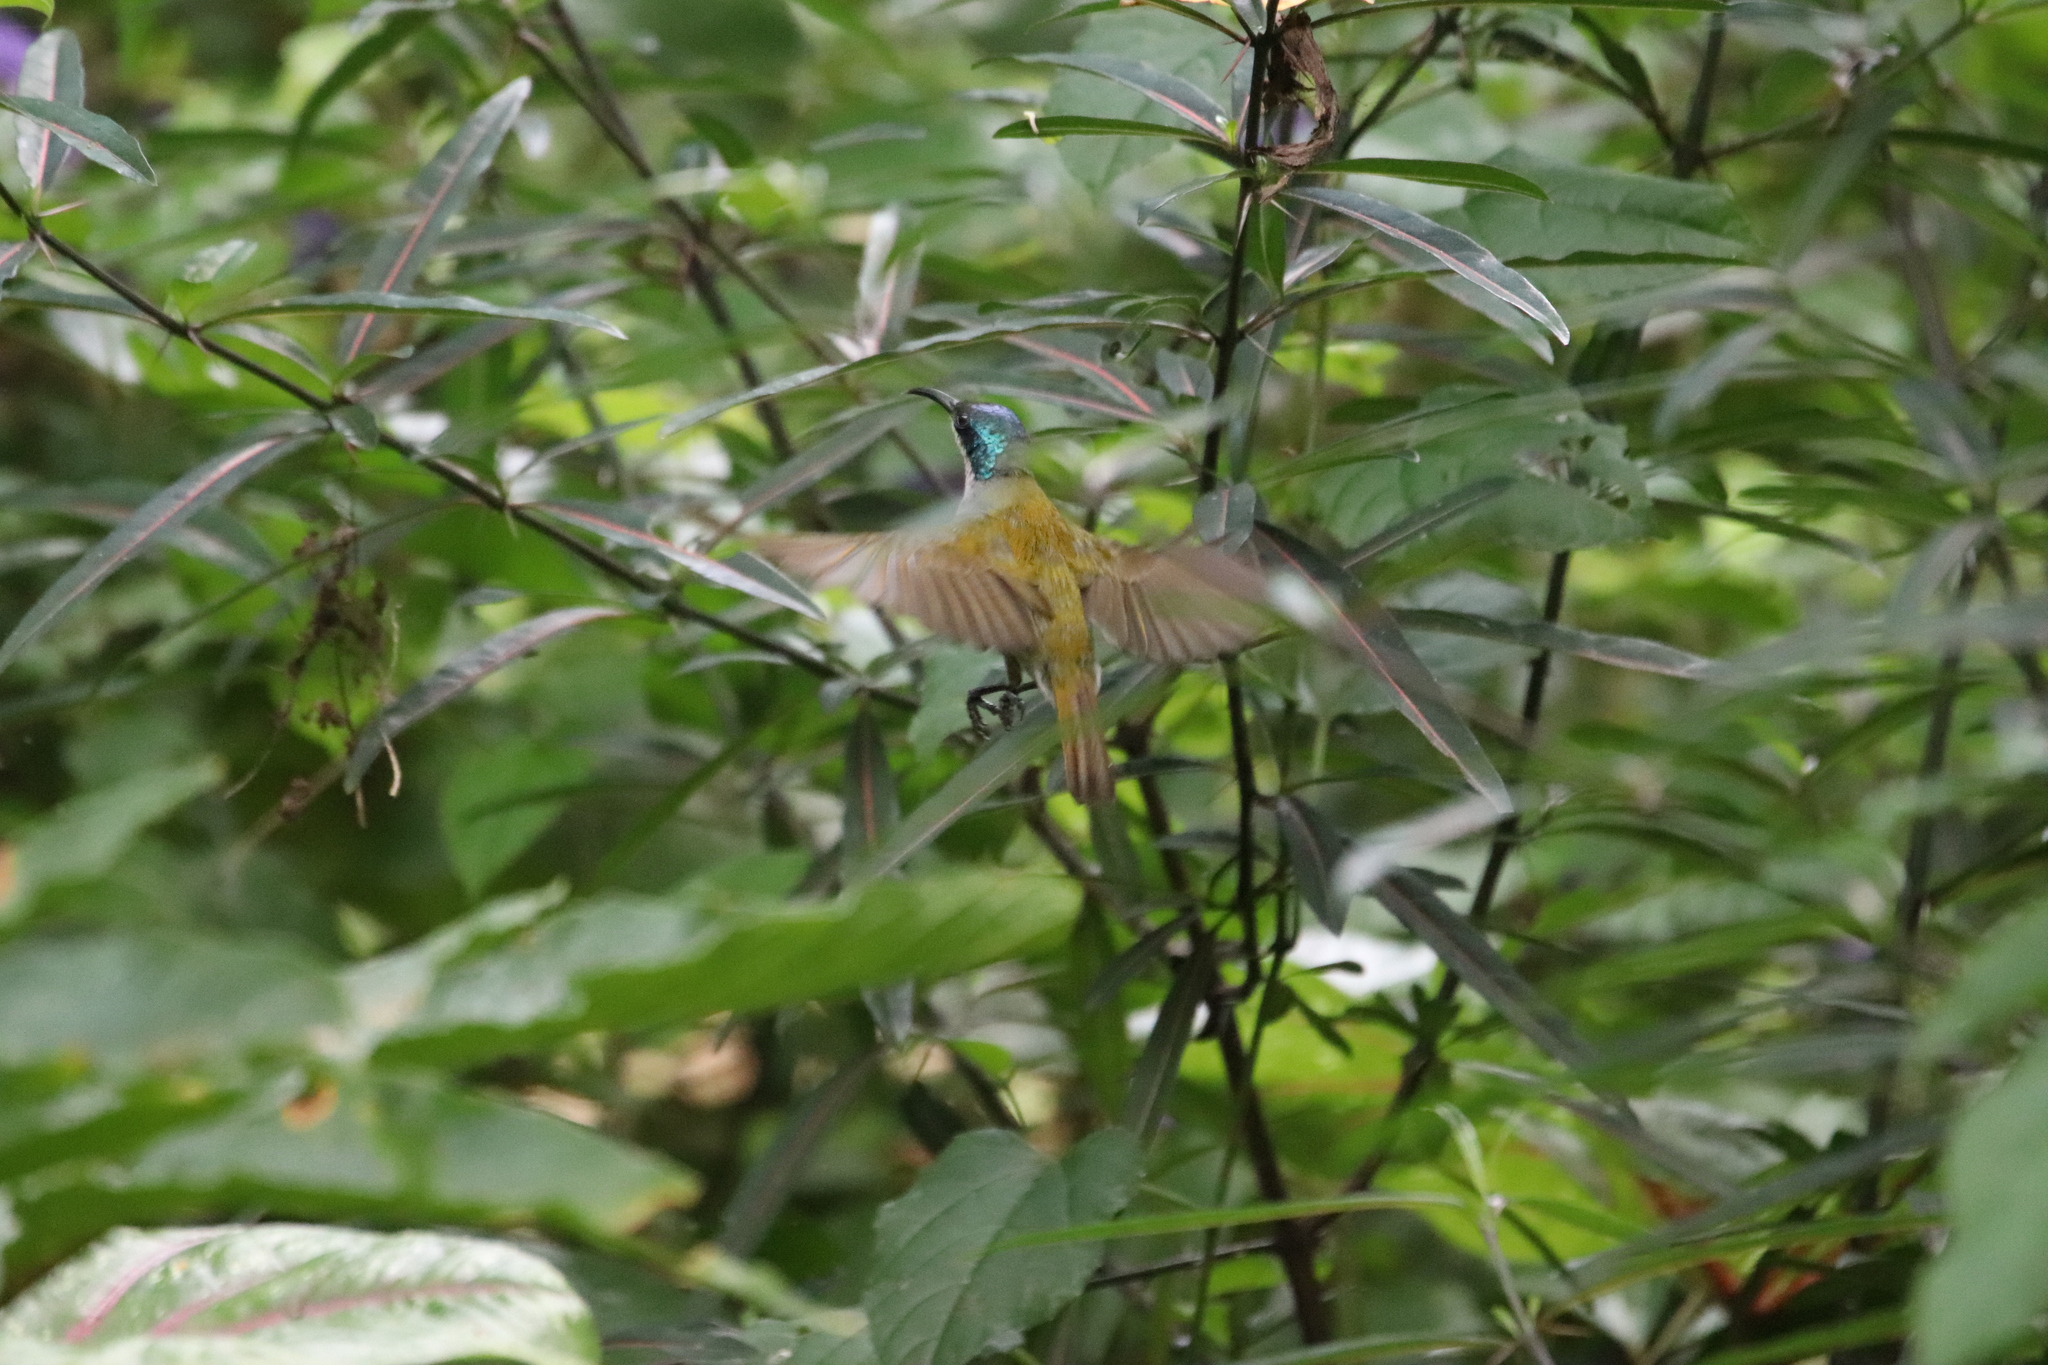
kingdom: Animalia
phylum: Chordata
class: Aves
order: Passeriformes
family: Nectariniidae
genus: Cyanomitra
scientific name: Cyanomitra verticalis
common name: Green-headed sunbird
